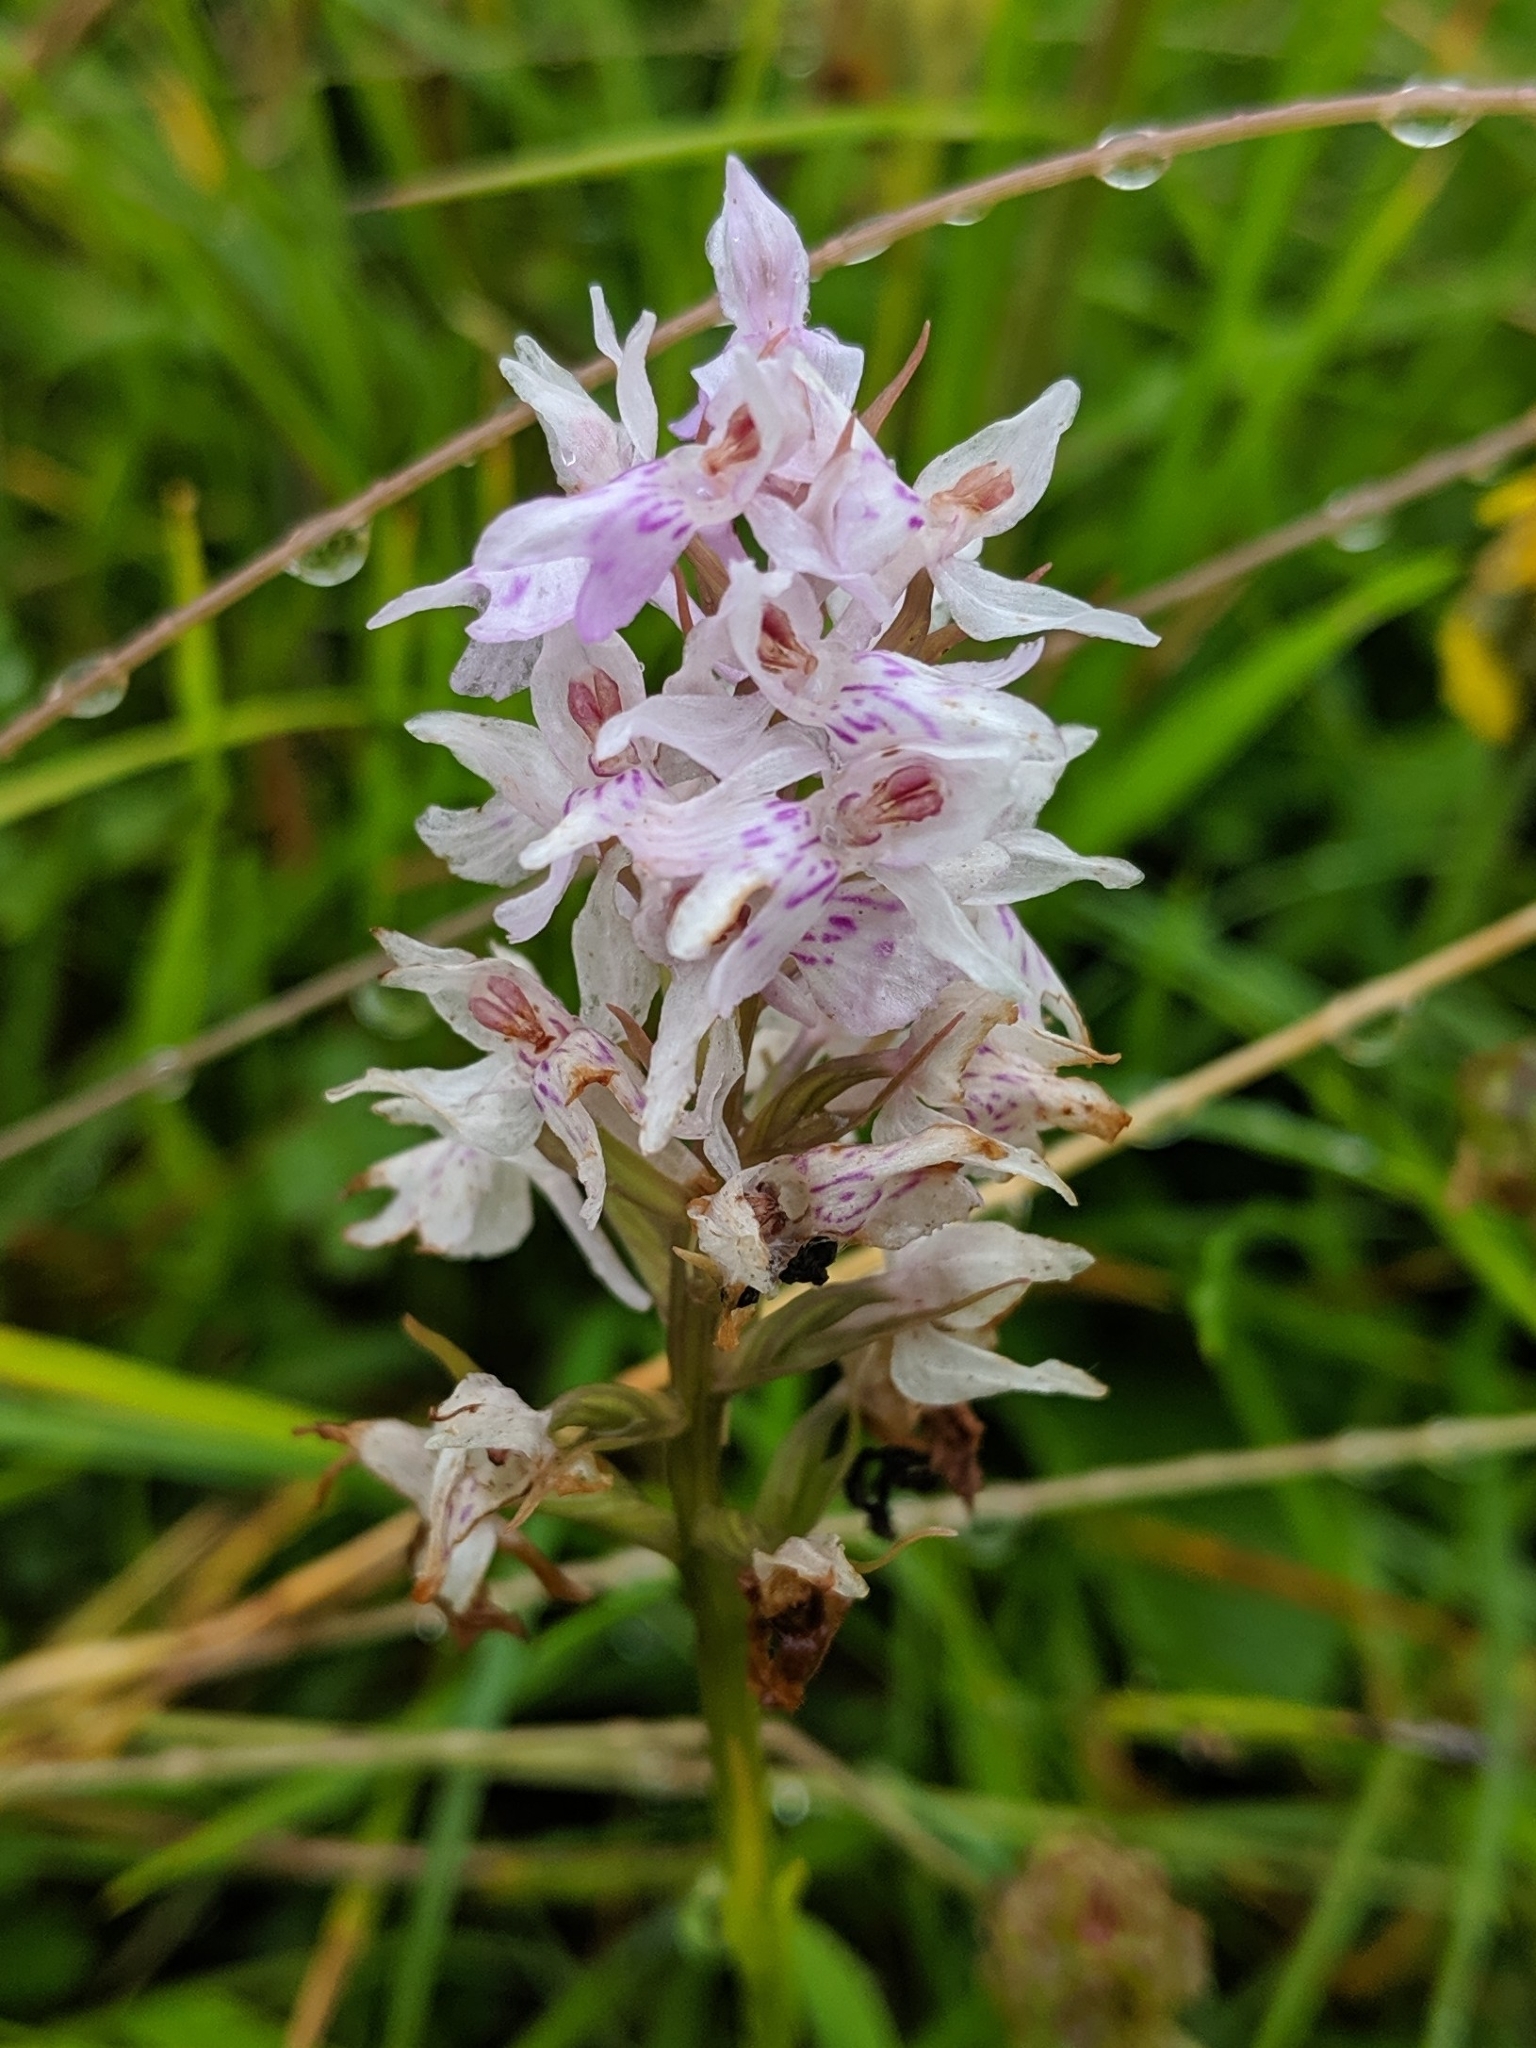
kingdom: Plantae
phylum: Tracheophyta
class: Liliopsida
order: Asparagales
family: Orchidaceae
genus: Dactylorhiza
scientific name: Dactylorhiza maculata
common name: Heath spotted-orchid
